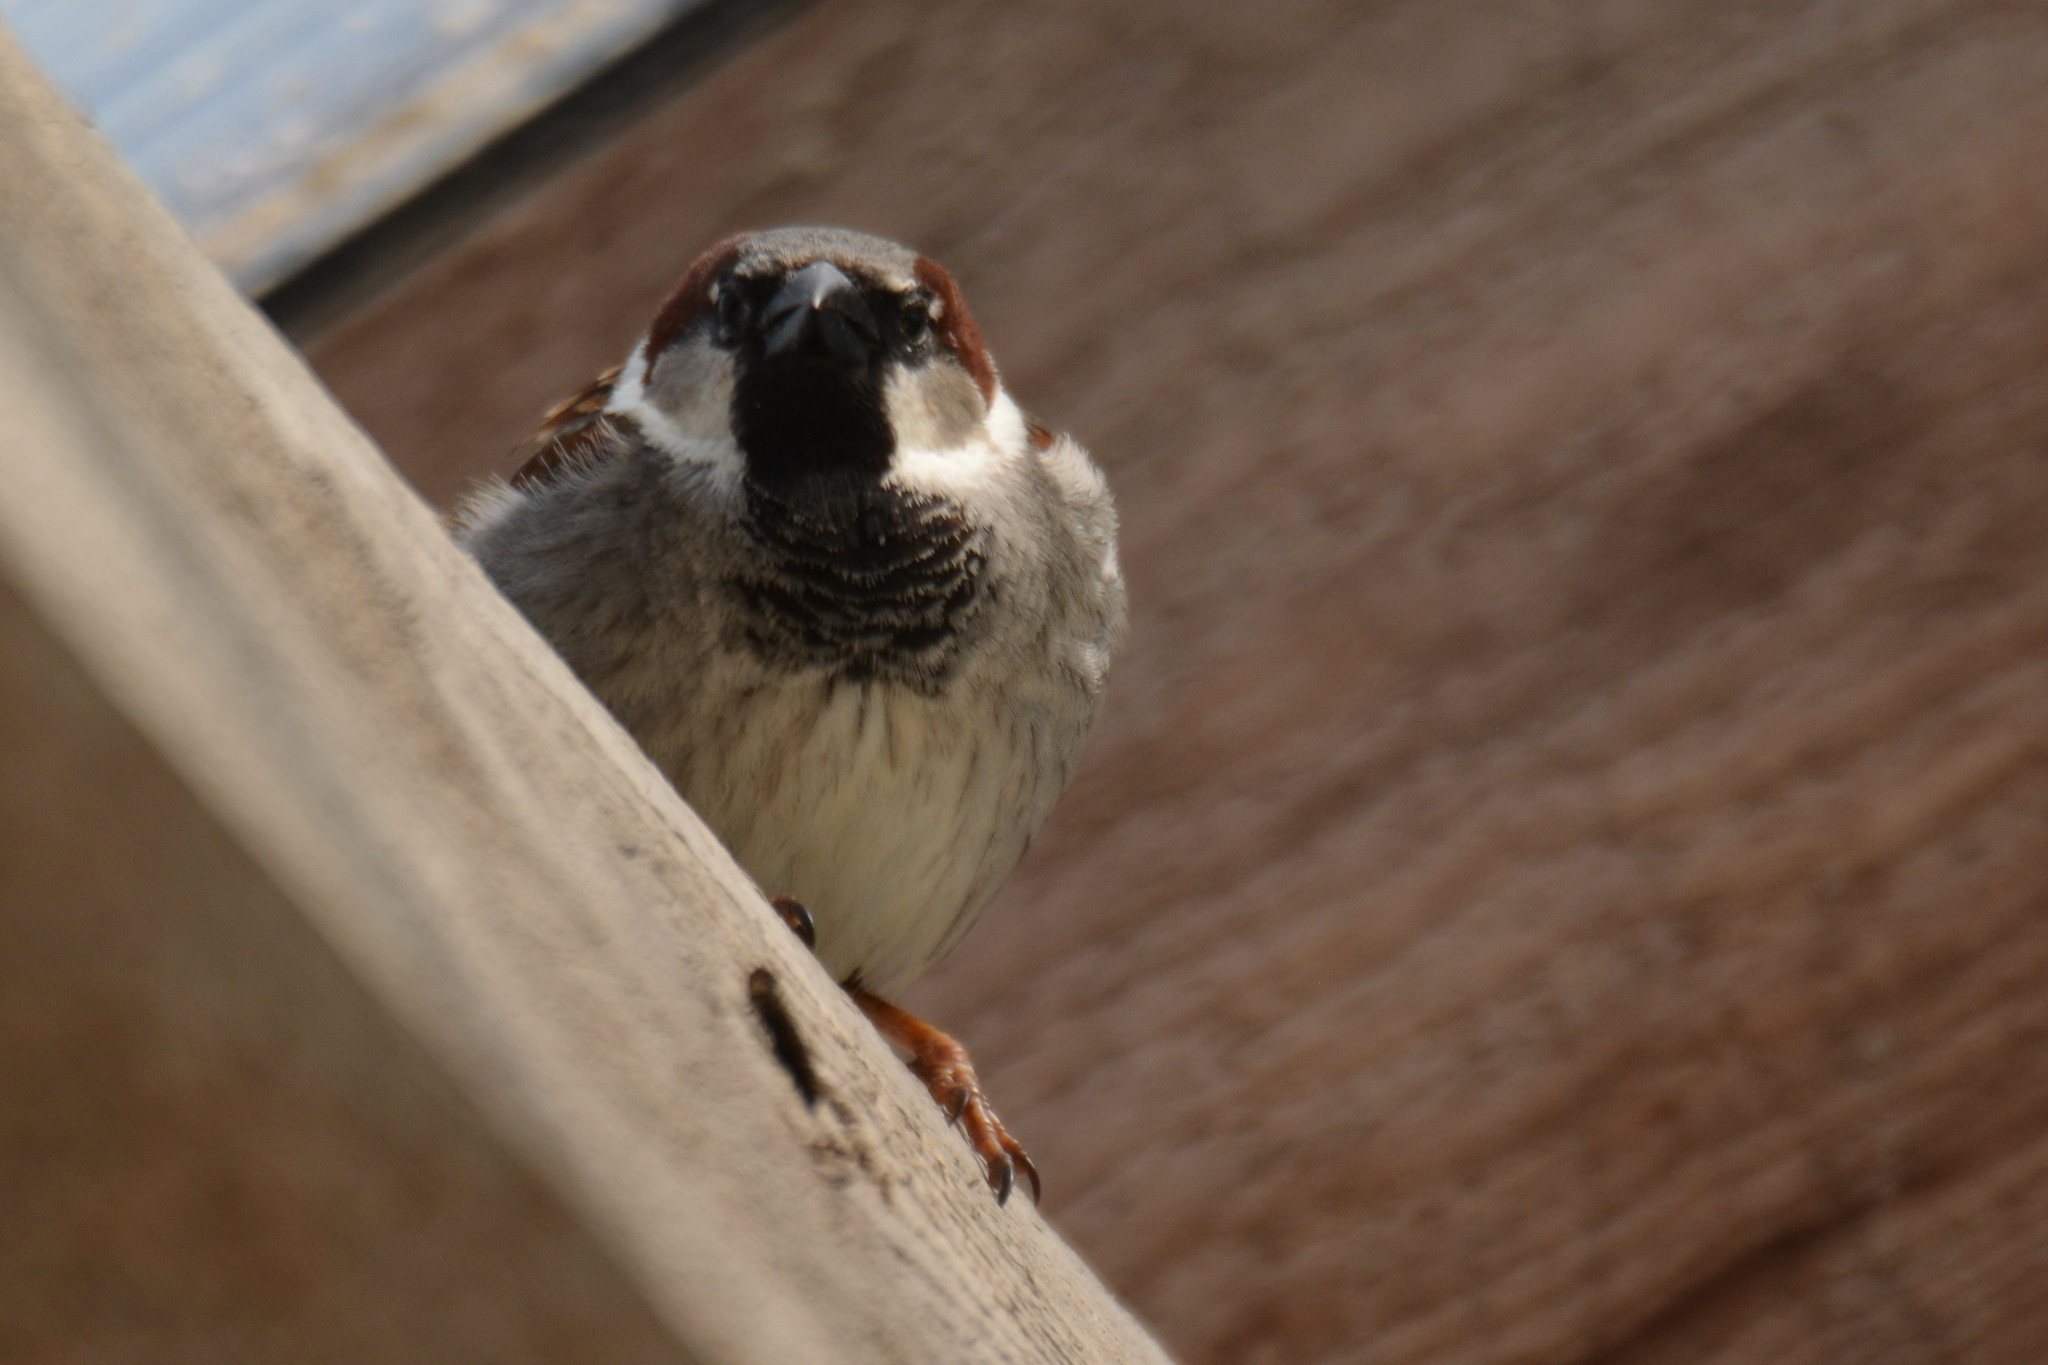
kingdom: Animalia
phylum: Chordata
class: Aves
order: Passeriformes
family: Passeridae
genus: Passer
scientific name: Passer domesticus
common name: House sparrow
